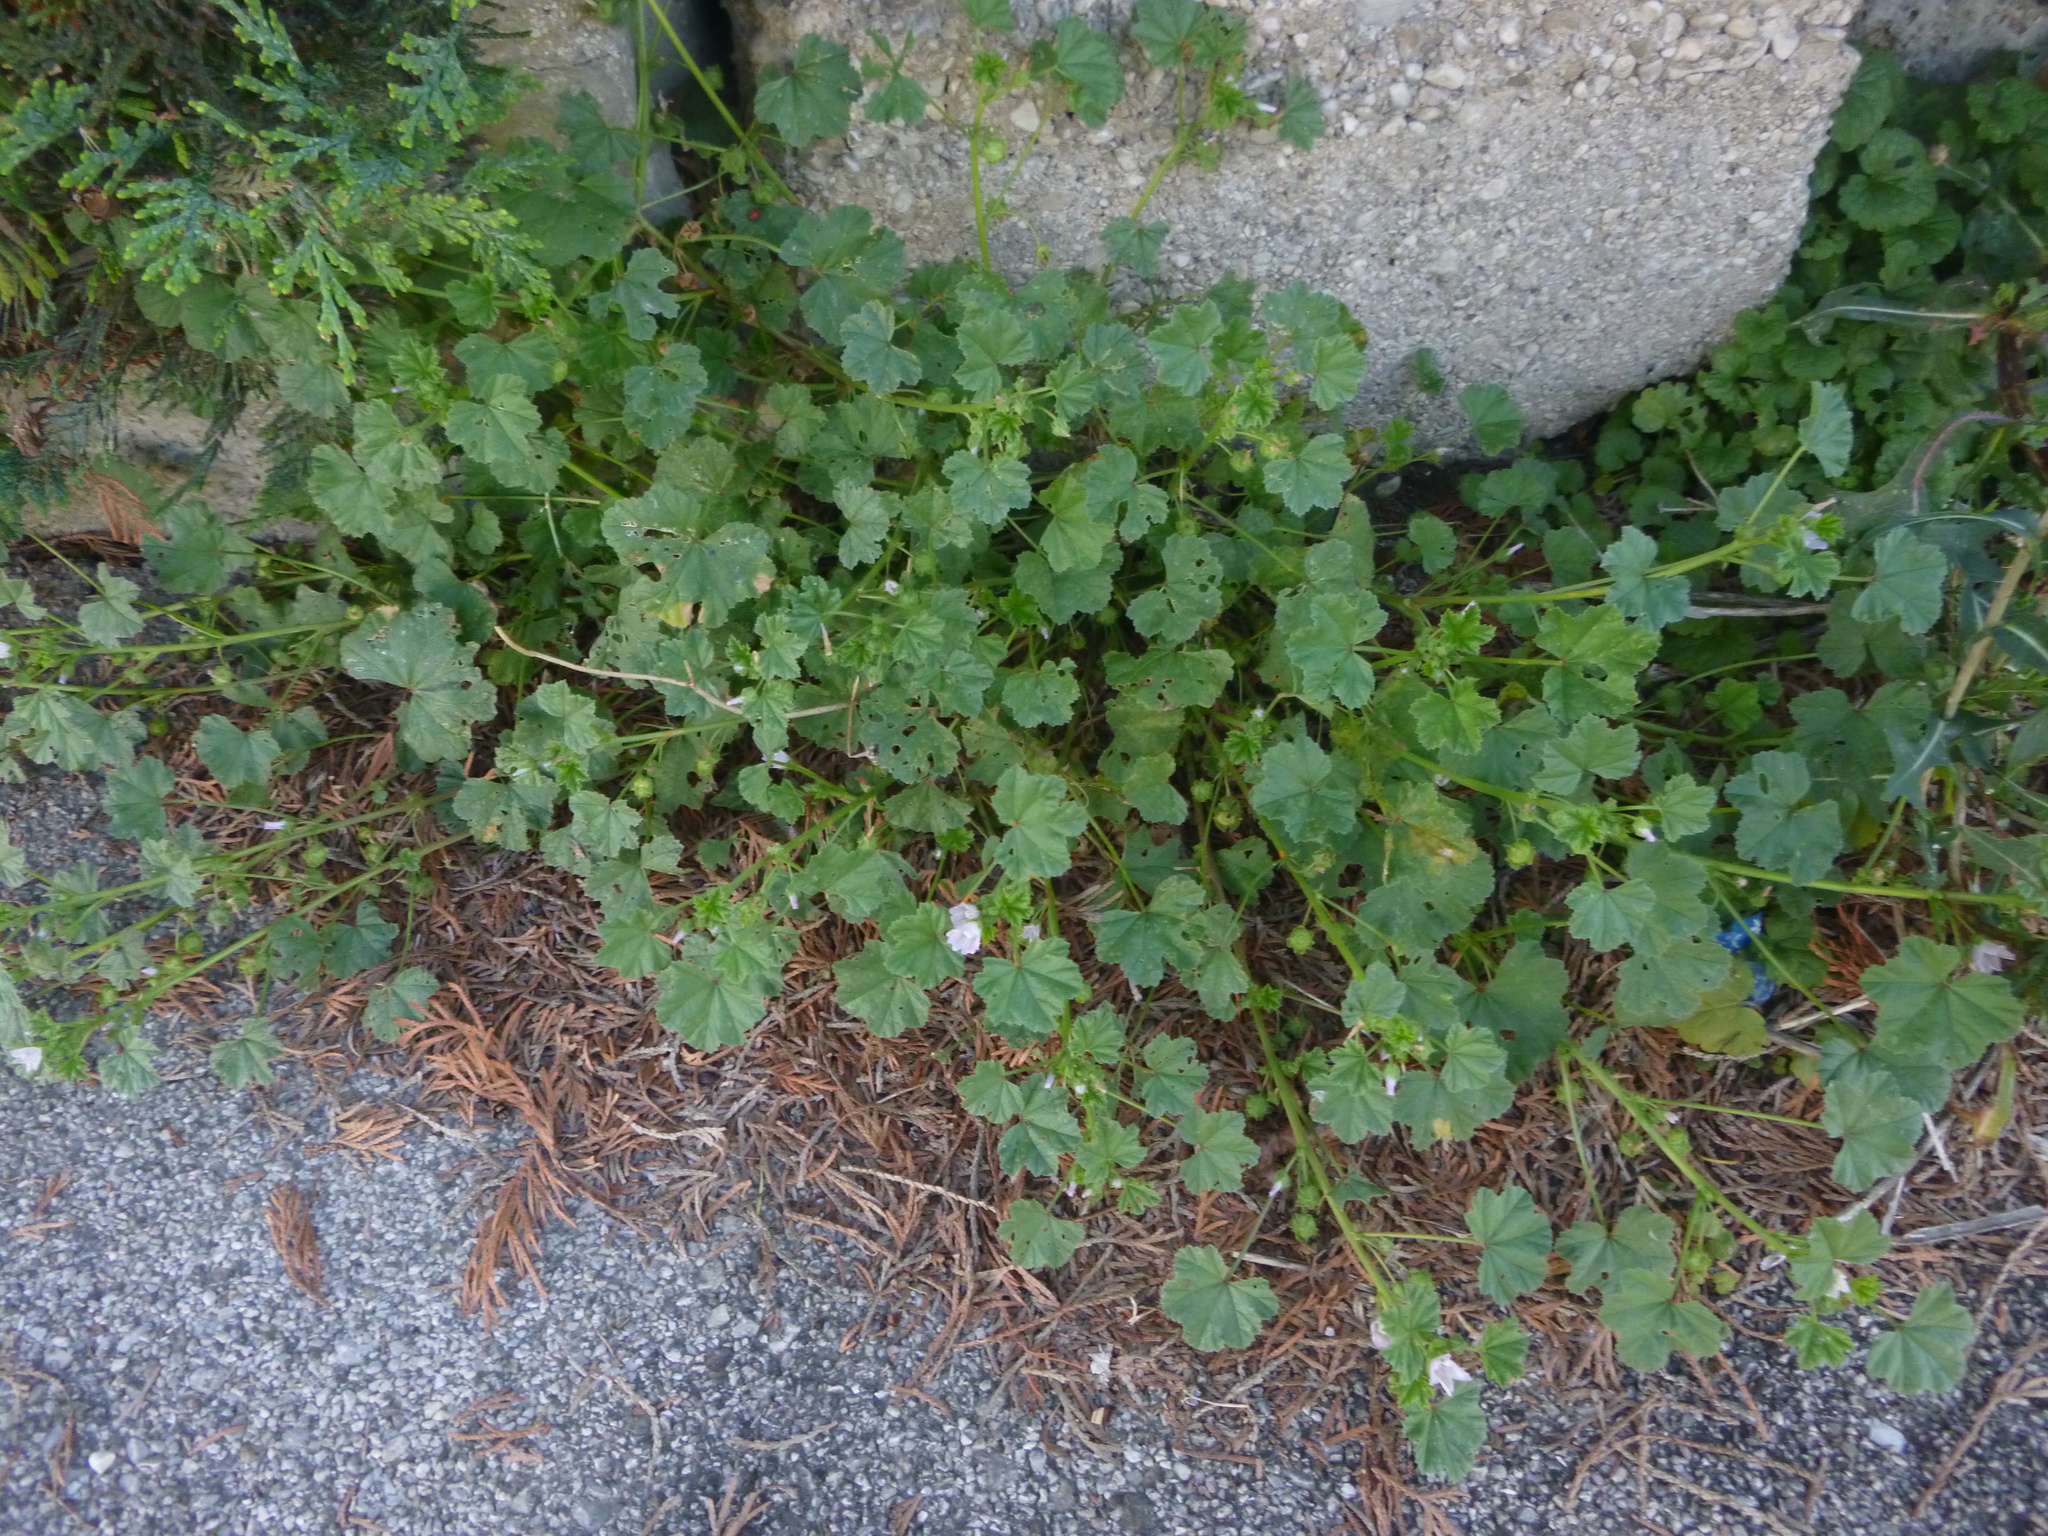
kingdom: Plantae
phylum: Tracheophyta
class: Magnoliopsida
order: Malvales
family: Malvaceae
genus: Malva
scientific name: Malva neglecta
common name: Common mallow
